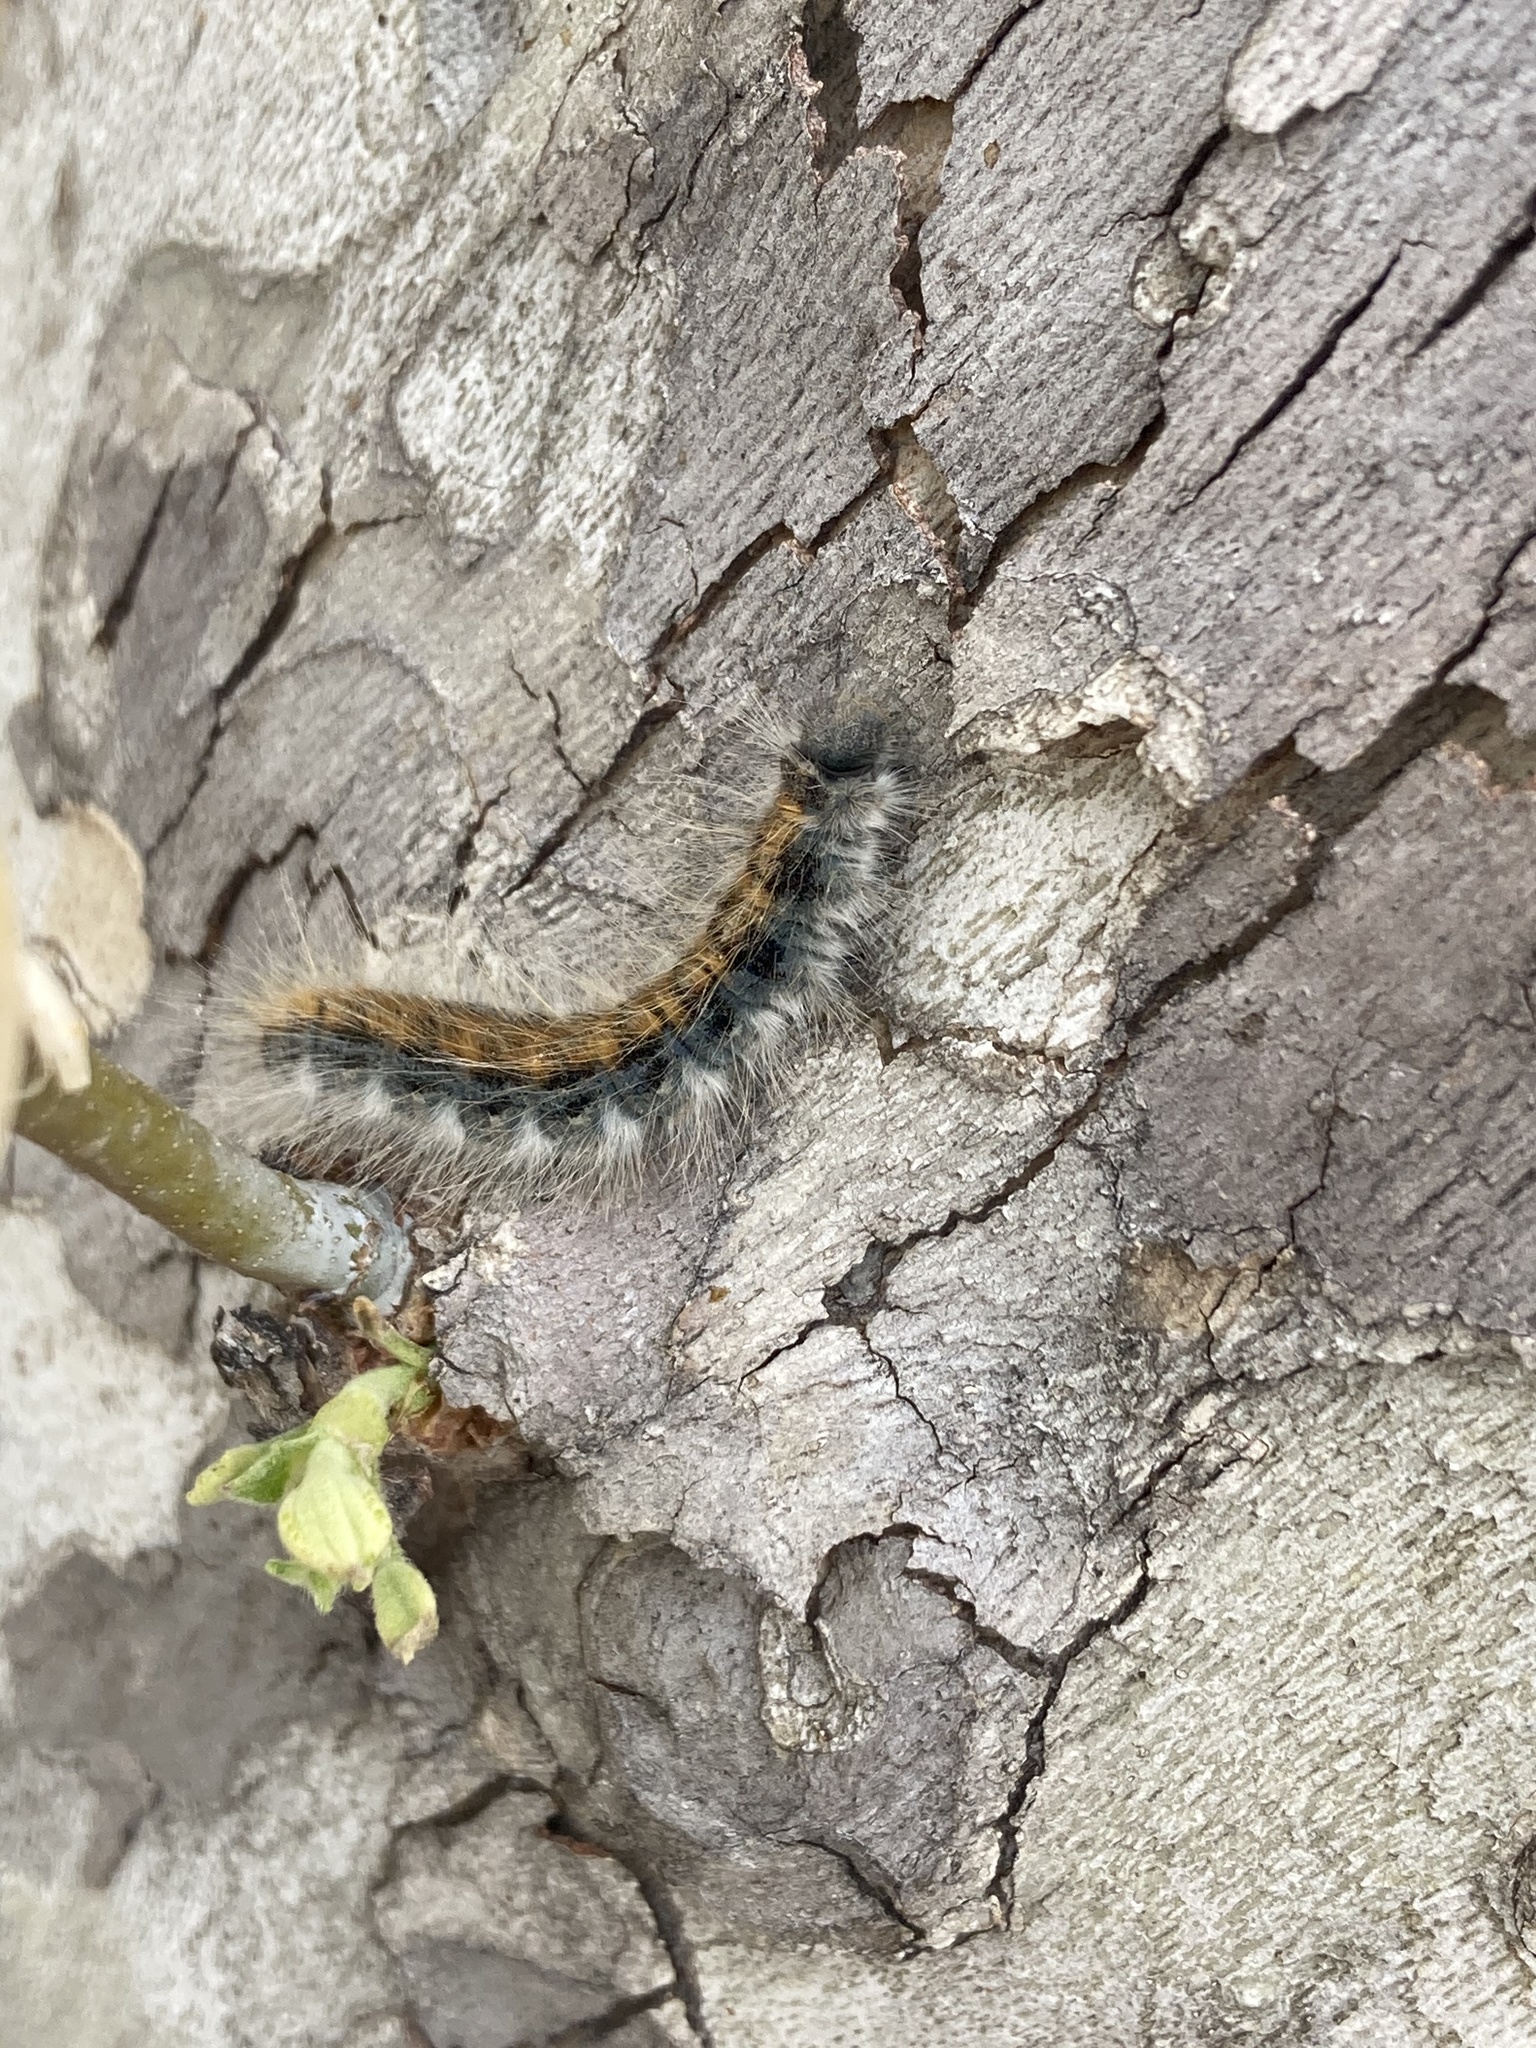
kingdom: Animalia
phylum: Arthropoda
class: Insecta
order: Lepidoptera
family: Lasiocampidae
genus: Malacosoma
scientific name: Malacosoma incurva
